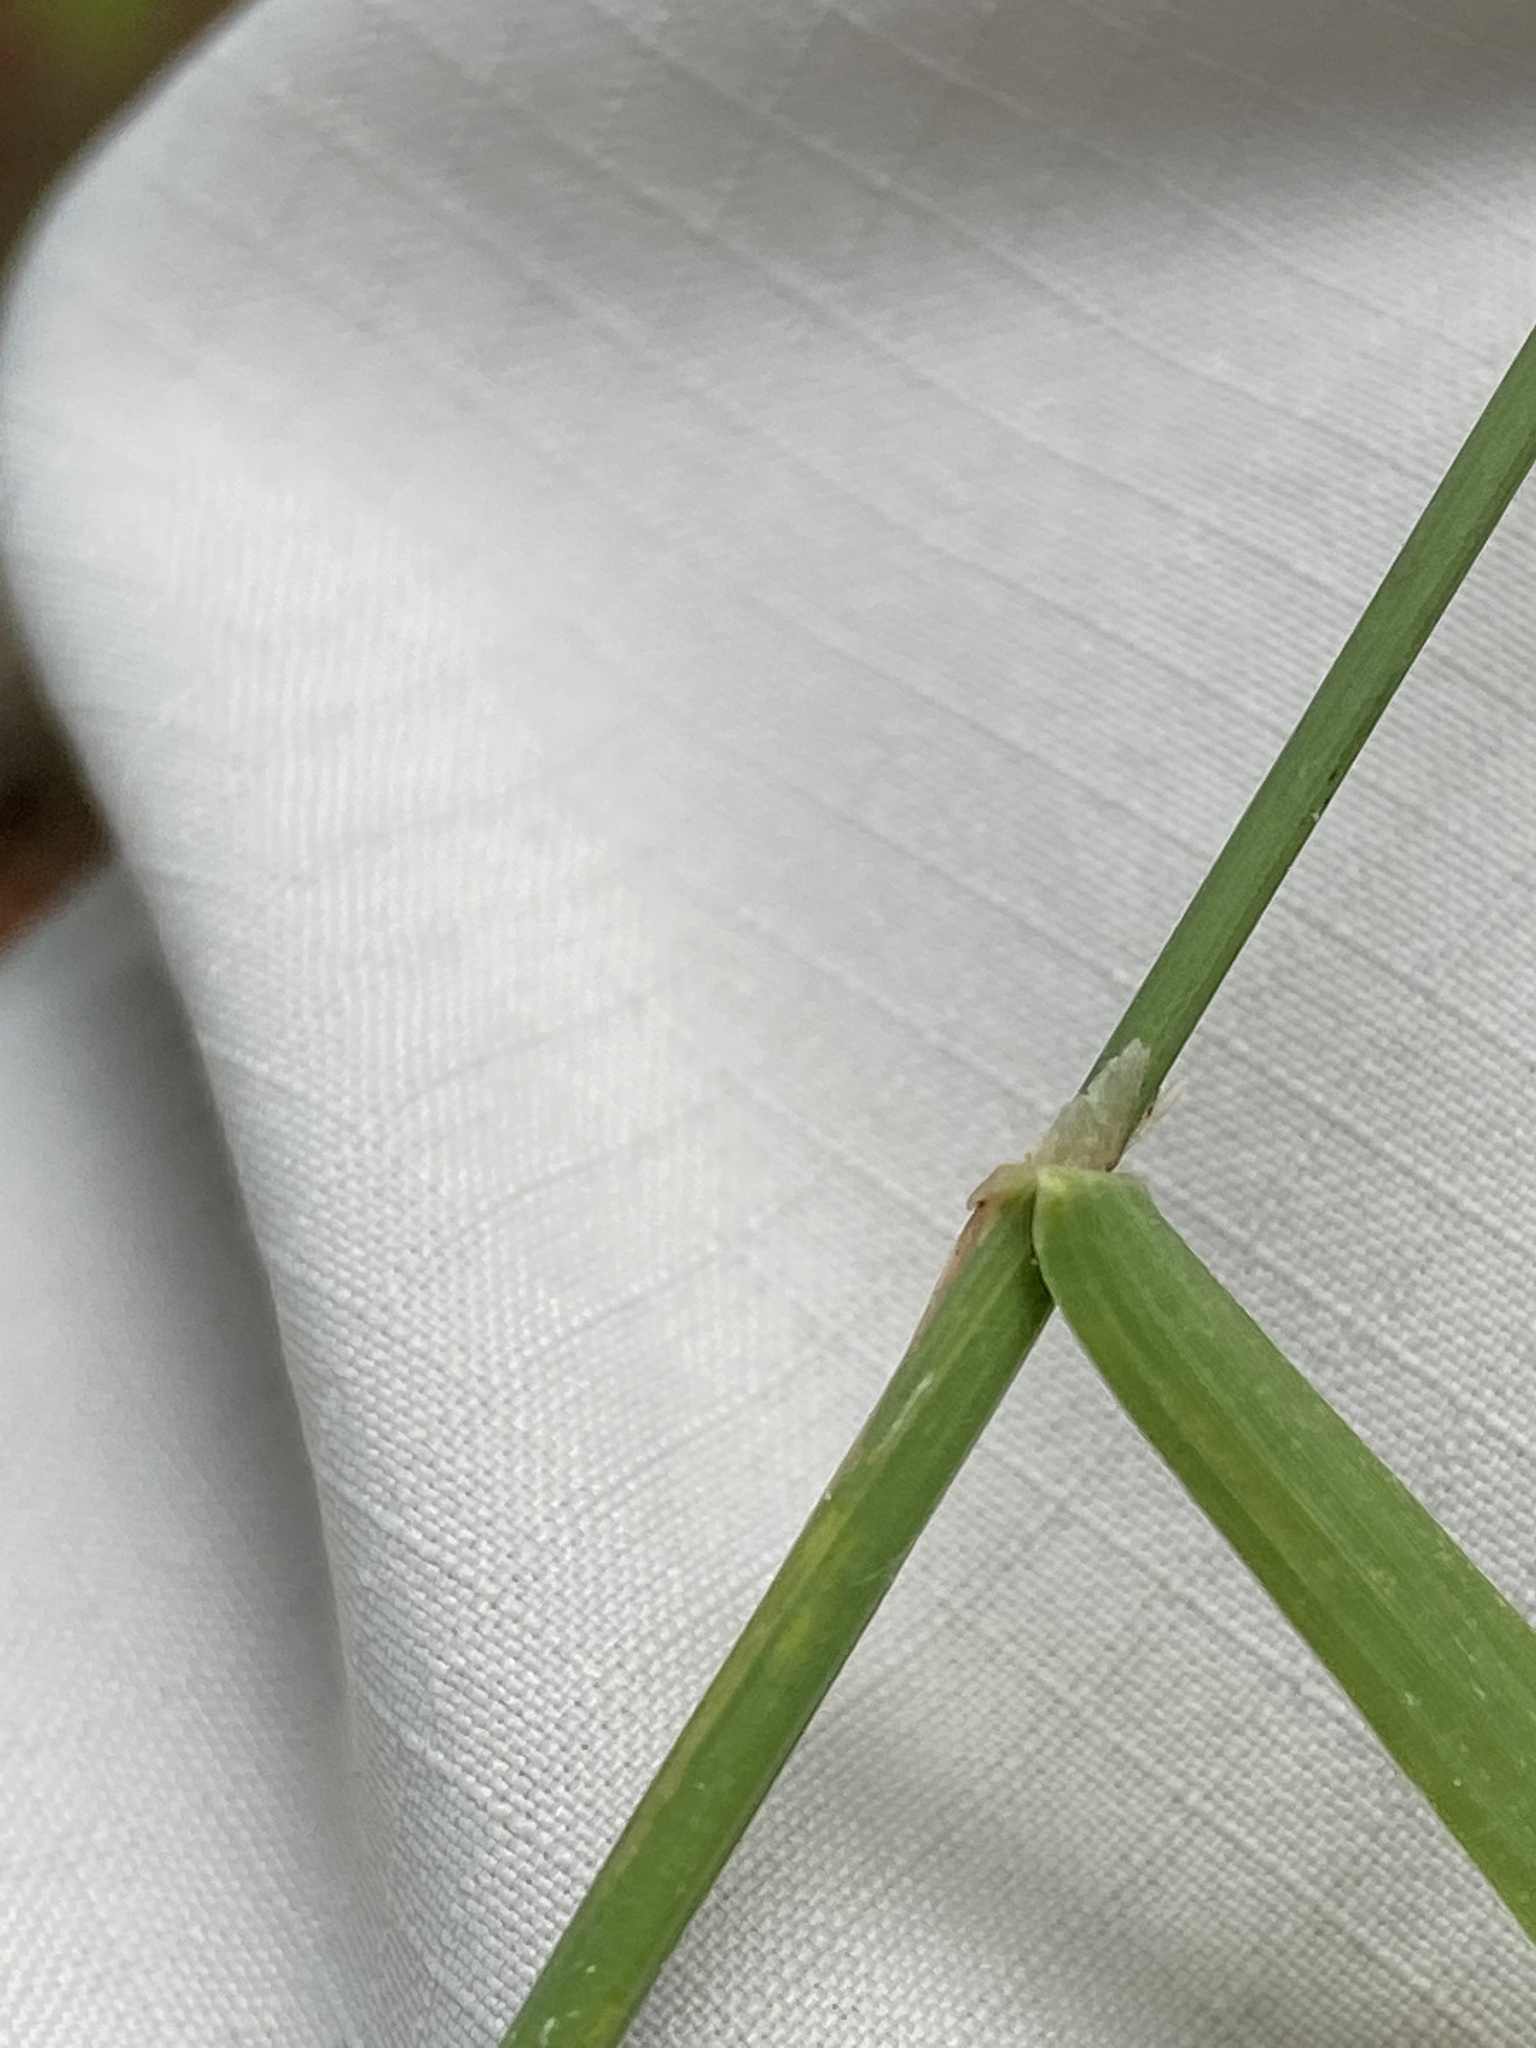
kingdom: Plantae
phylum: Tracheophyta
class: Liliopsida
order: Poales
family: Poaceae
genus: Phleum
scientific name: Phleum pratense
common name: Timothy grass
